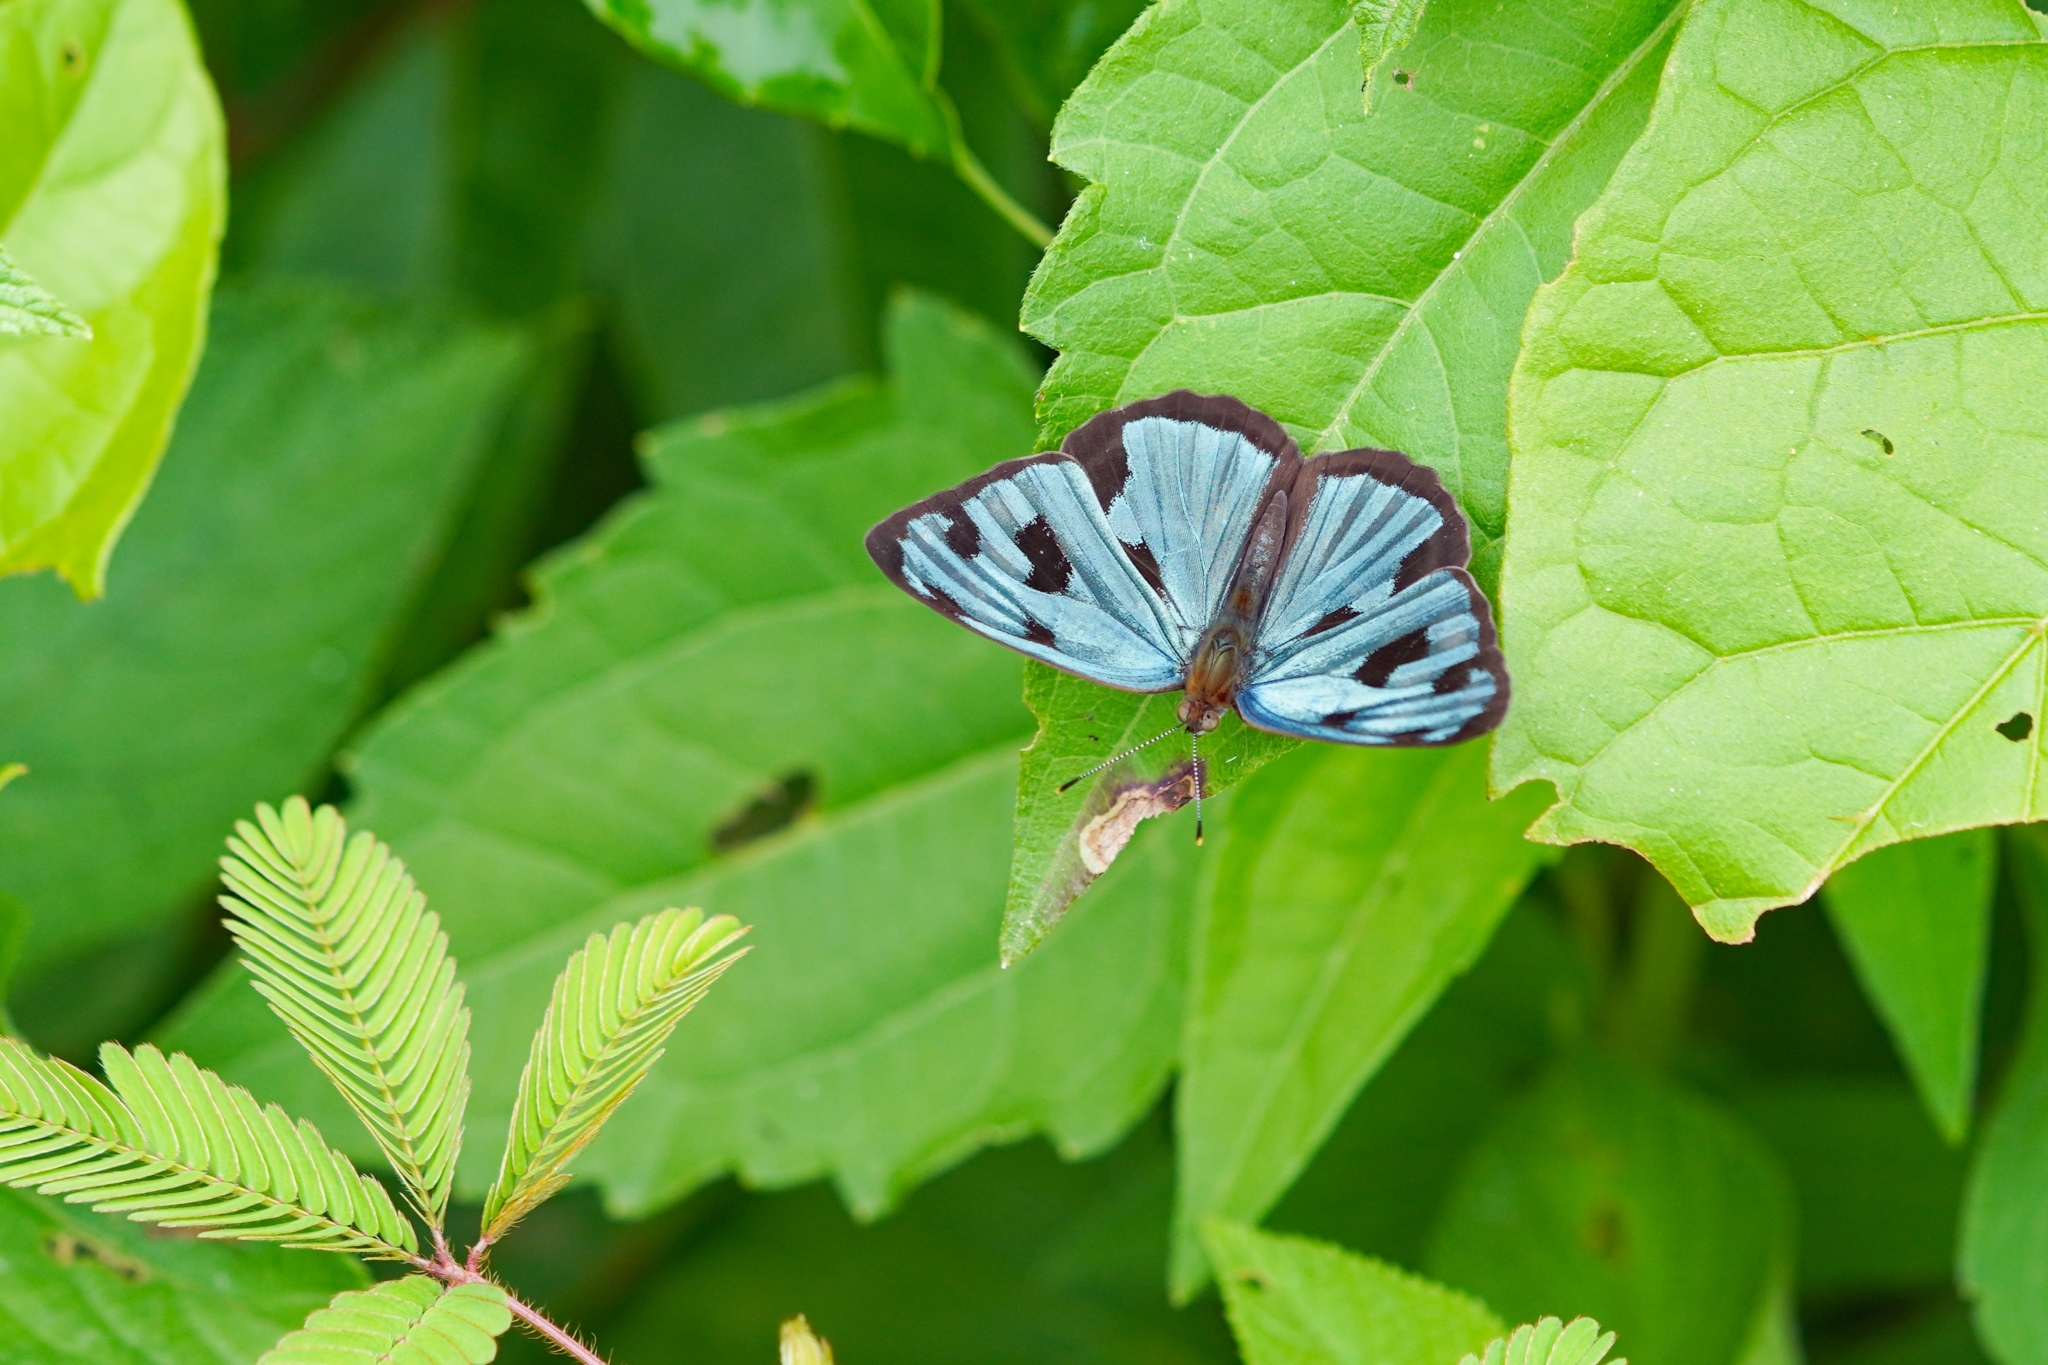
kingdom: Animalia
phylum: Arthropoda
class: Insecta
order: Lepidoptera
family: Nymphalidae
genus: Dynamine
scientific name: Dynamine mylitta
